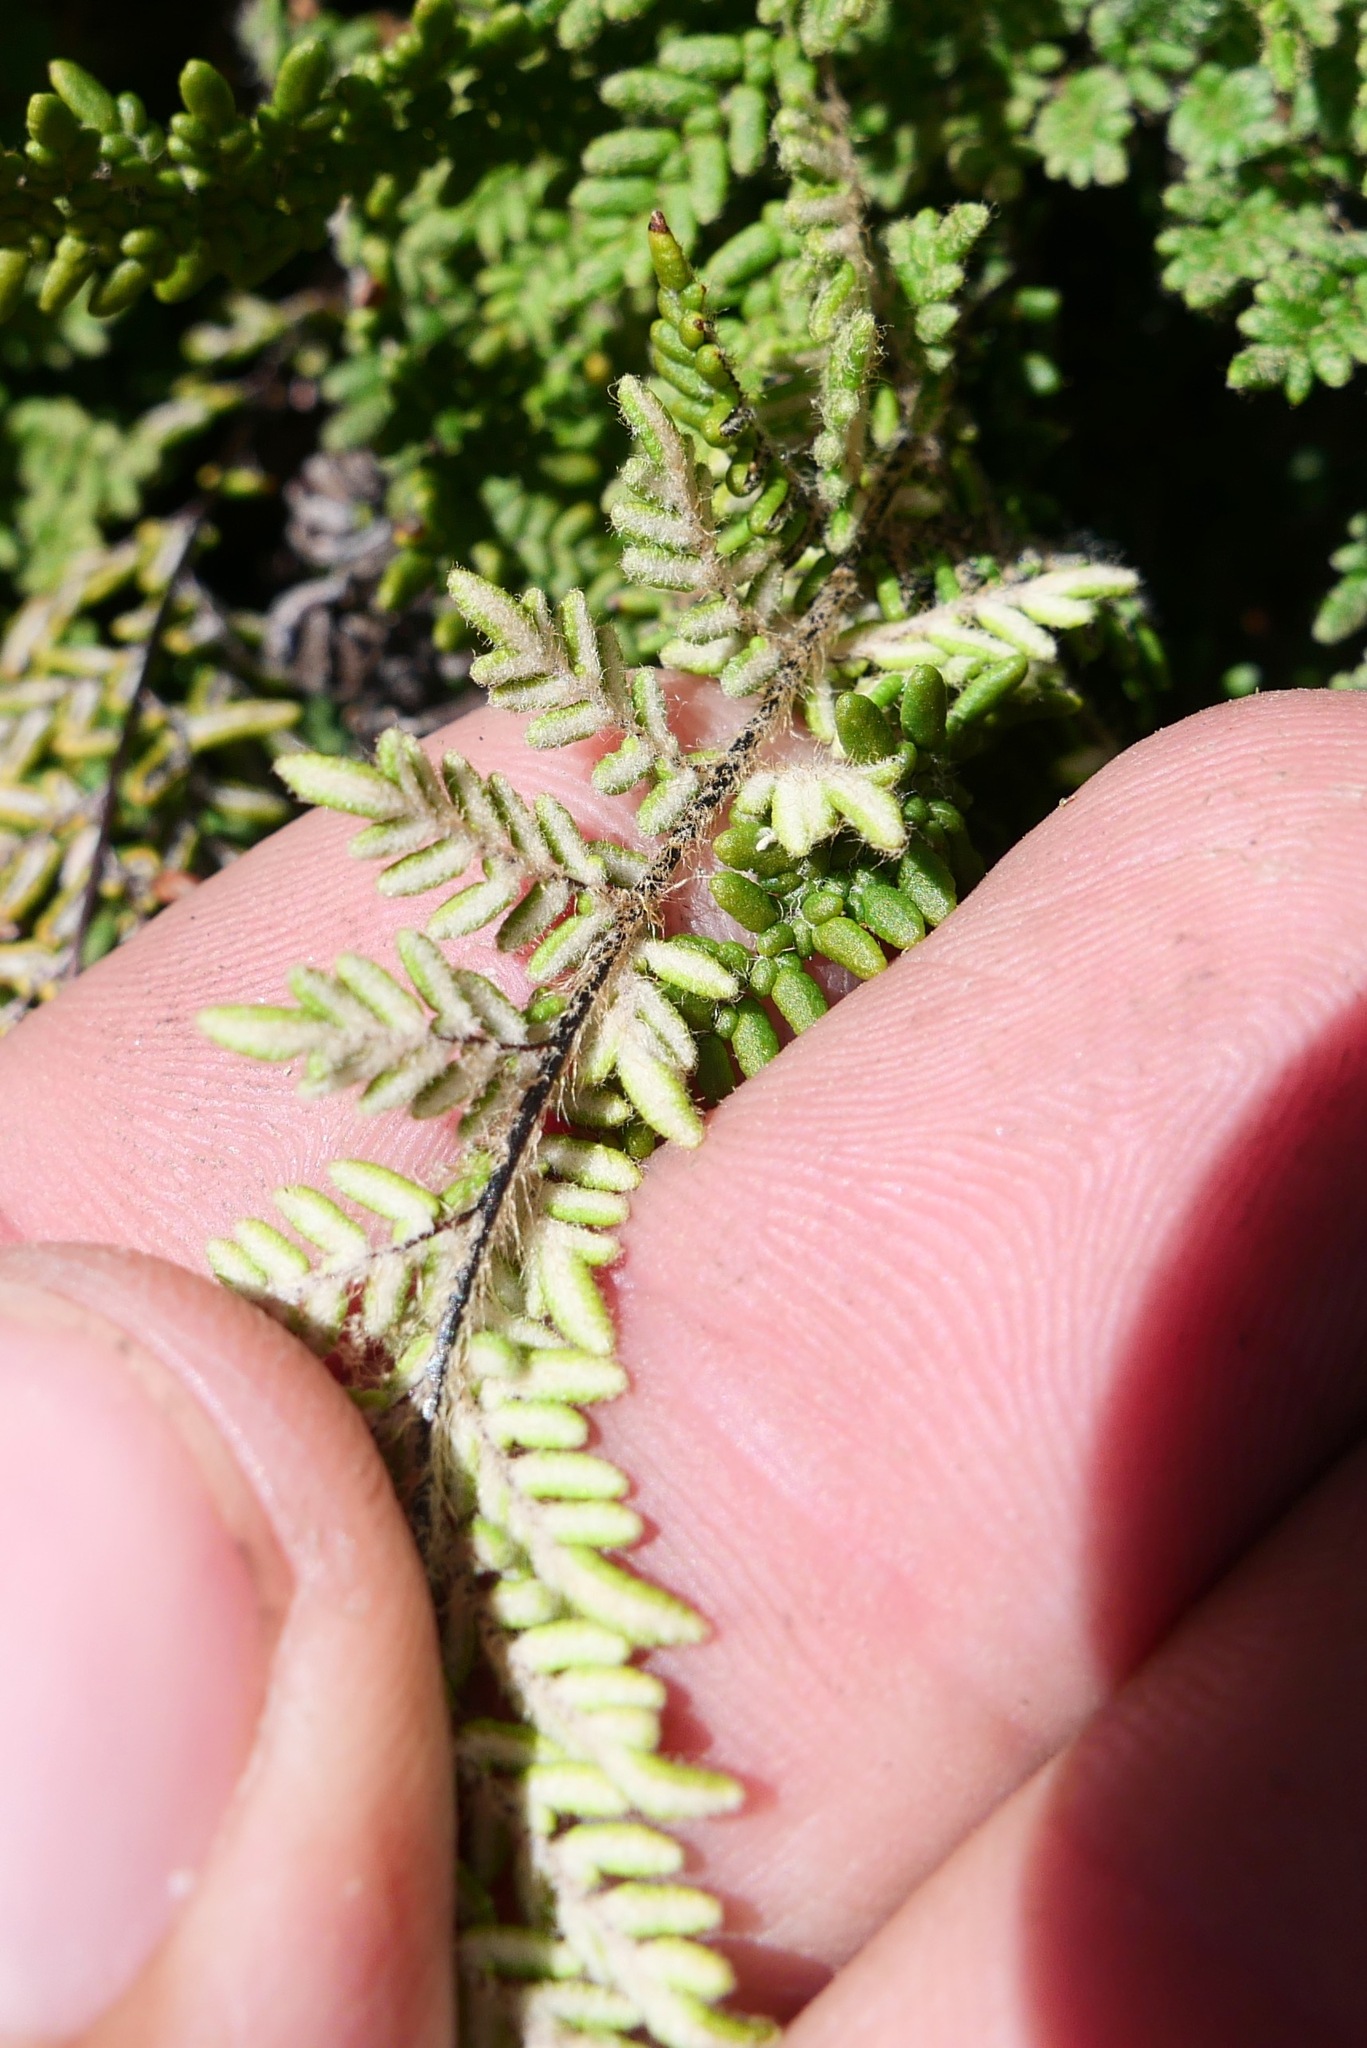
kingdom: Plantae
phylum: Tracheophyta
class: Polypodiopsida
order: Polypodiales
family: Pteridaceae
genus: Myriopteris
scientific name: Myriopteris gracillima
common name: Lace fern
